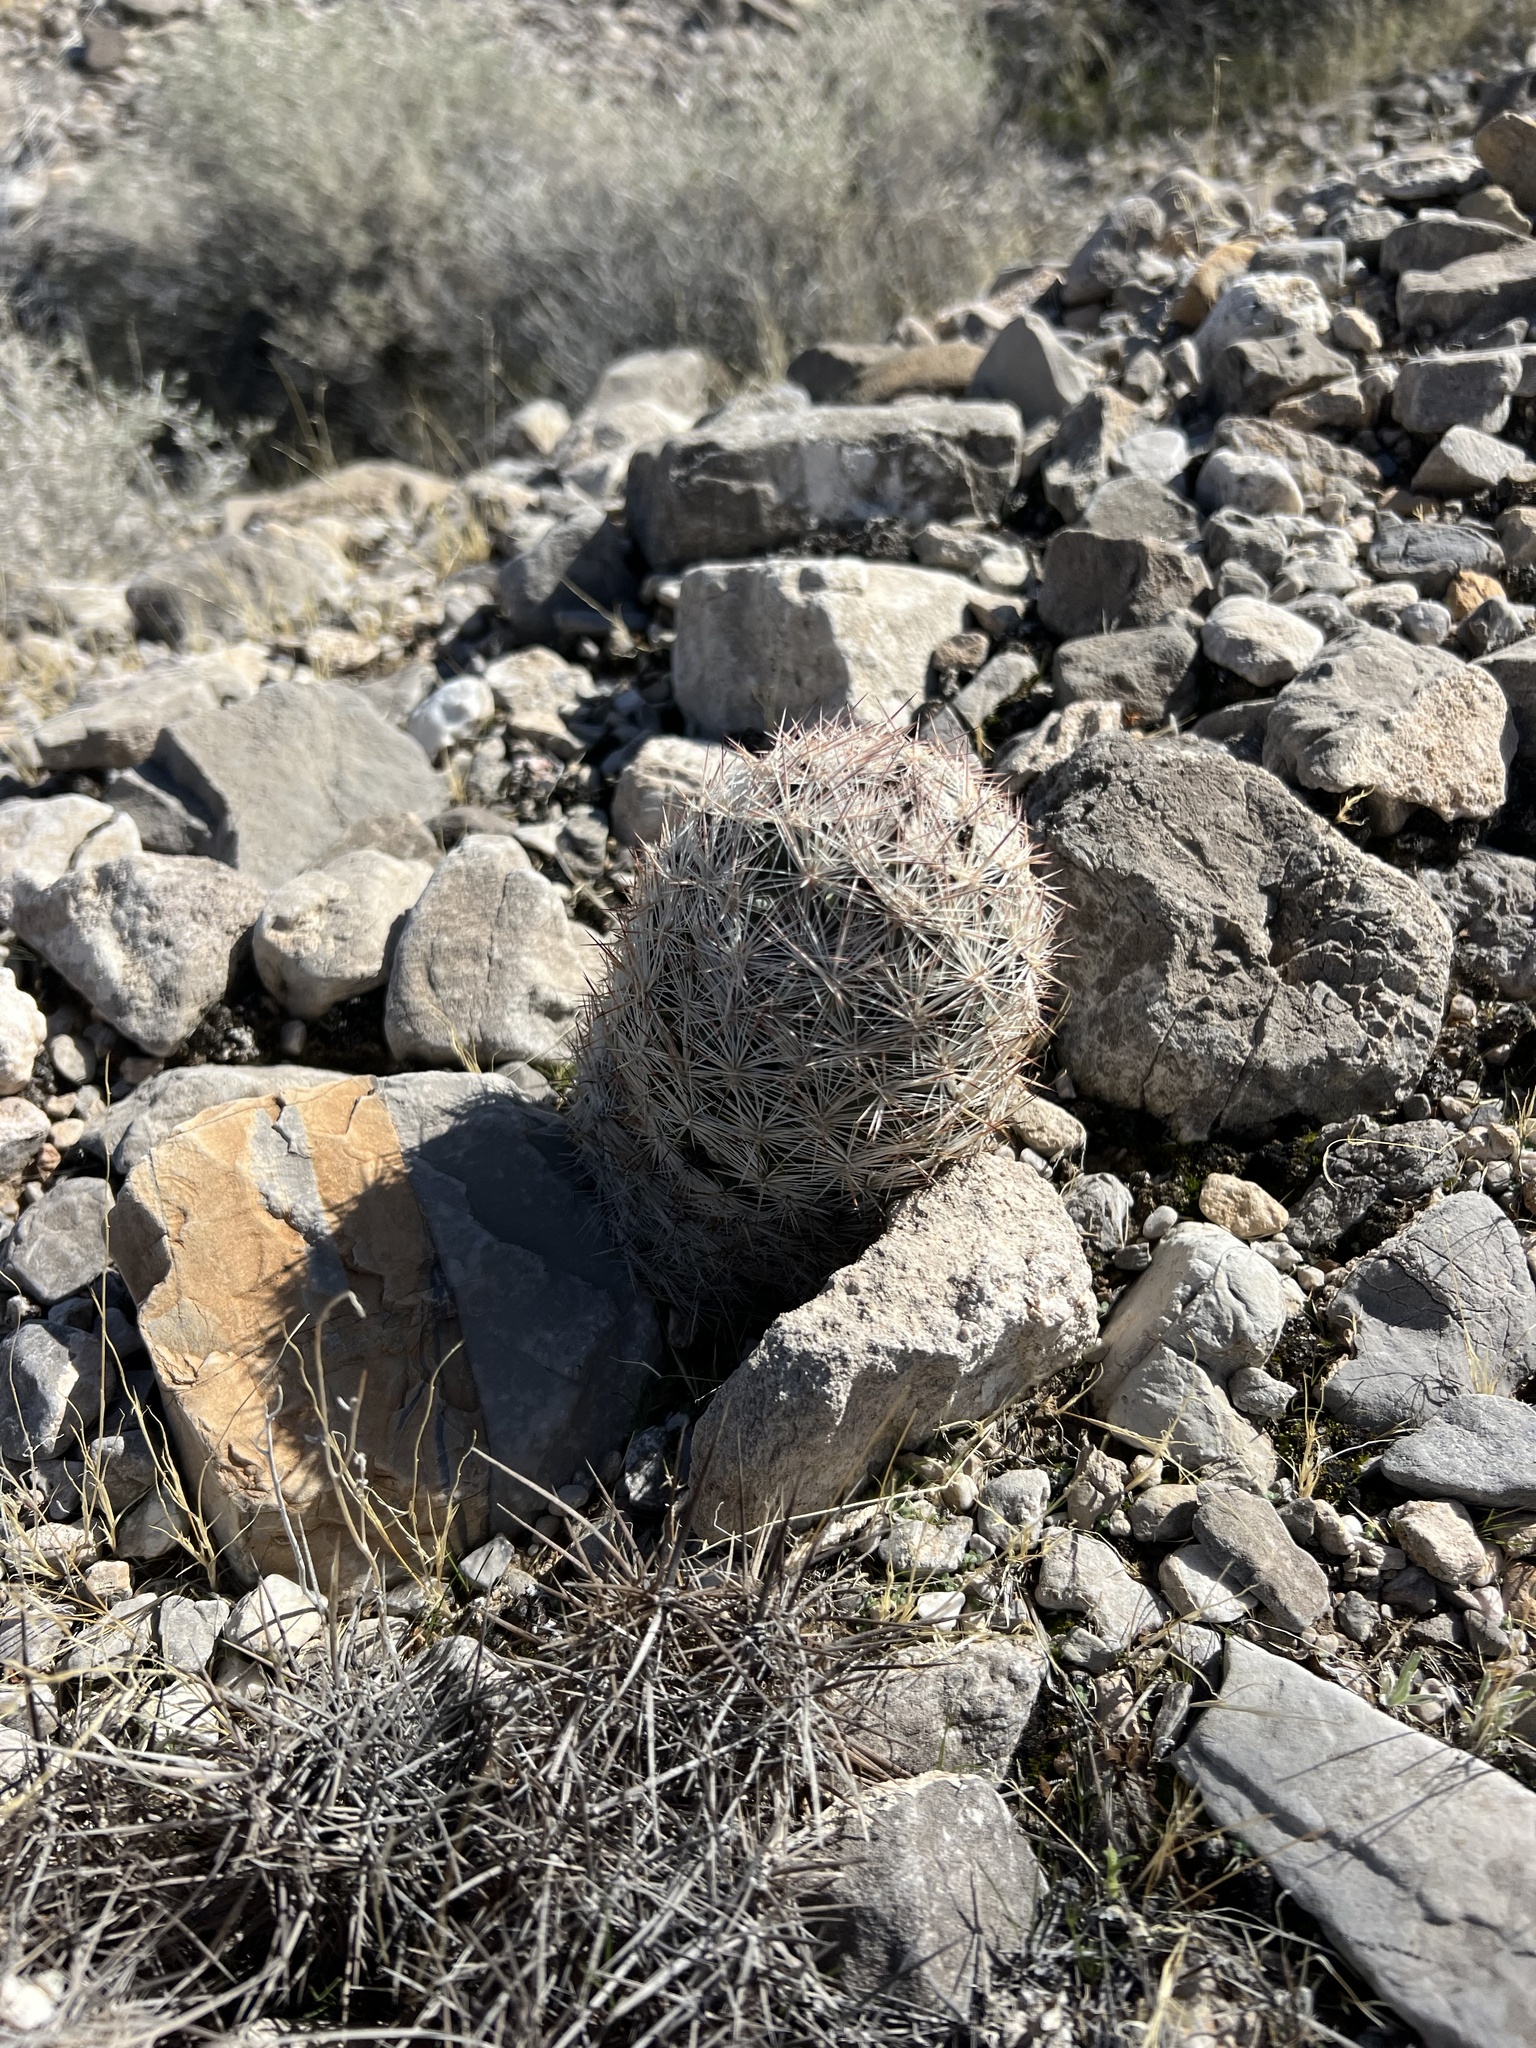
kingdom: Plantae
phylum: Tracheophyta
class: Magnoliopsida
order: Caryophyllales
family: Cactaceae
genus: Pelecyphora
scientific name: Pelecyphora dasyacantha
